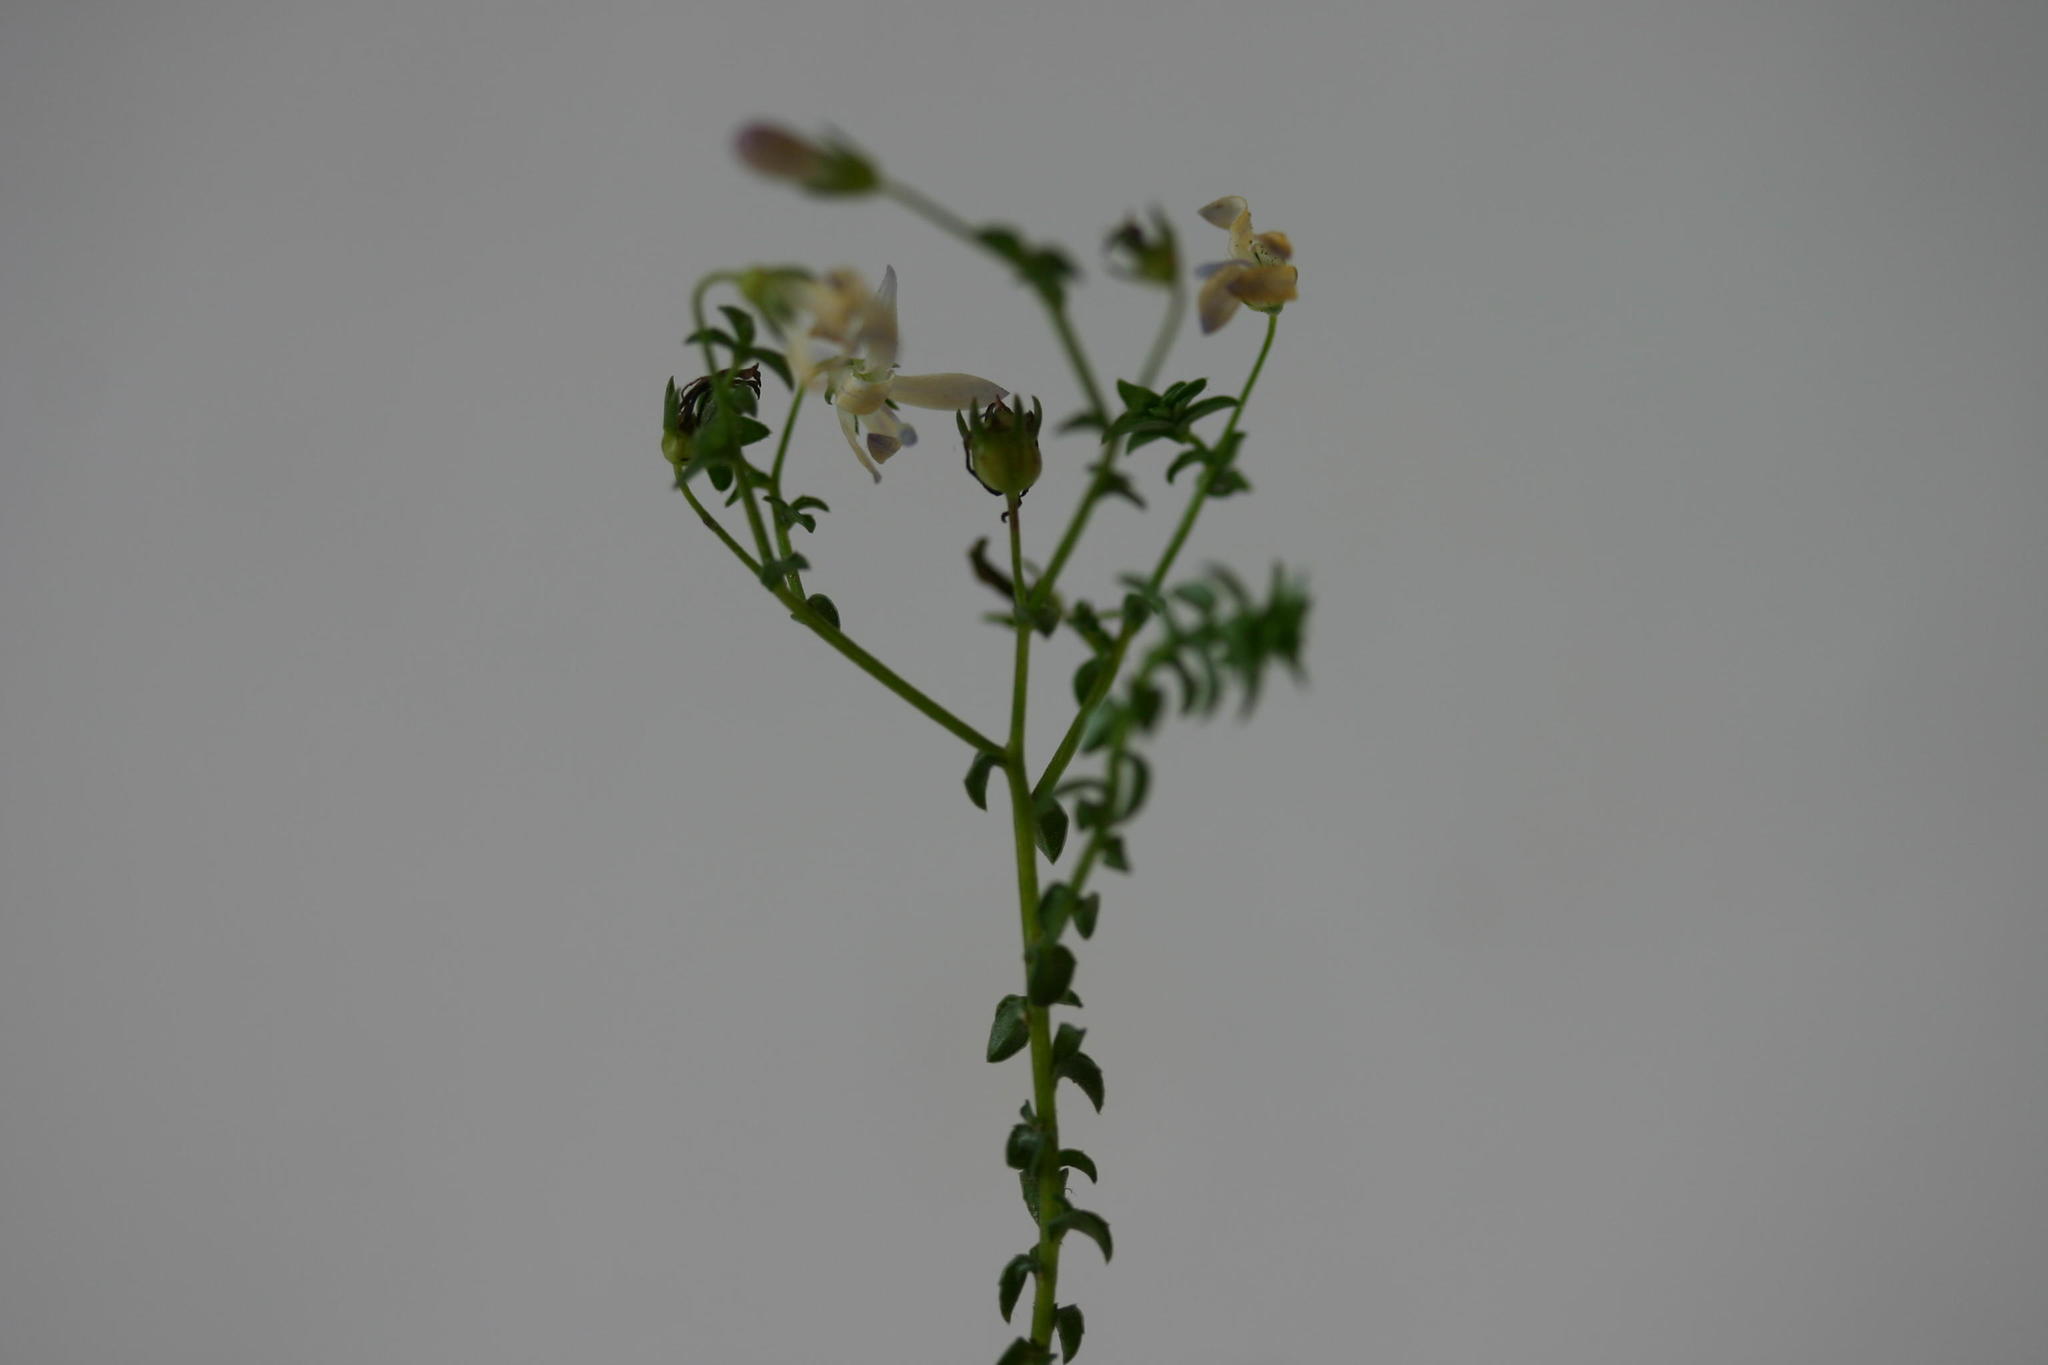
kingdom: Plantae
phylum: Tracheophyta
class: Magnoliopsida
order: Asterales
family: Campanulaceae
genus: Wahlenbergia
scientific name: Wahlenbergia loddigesii
